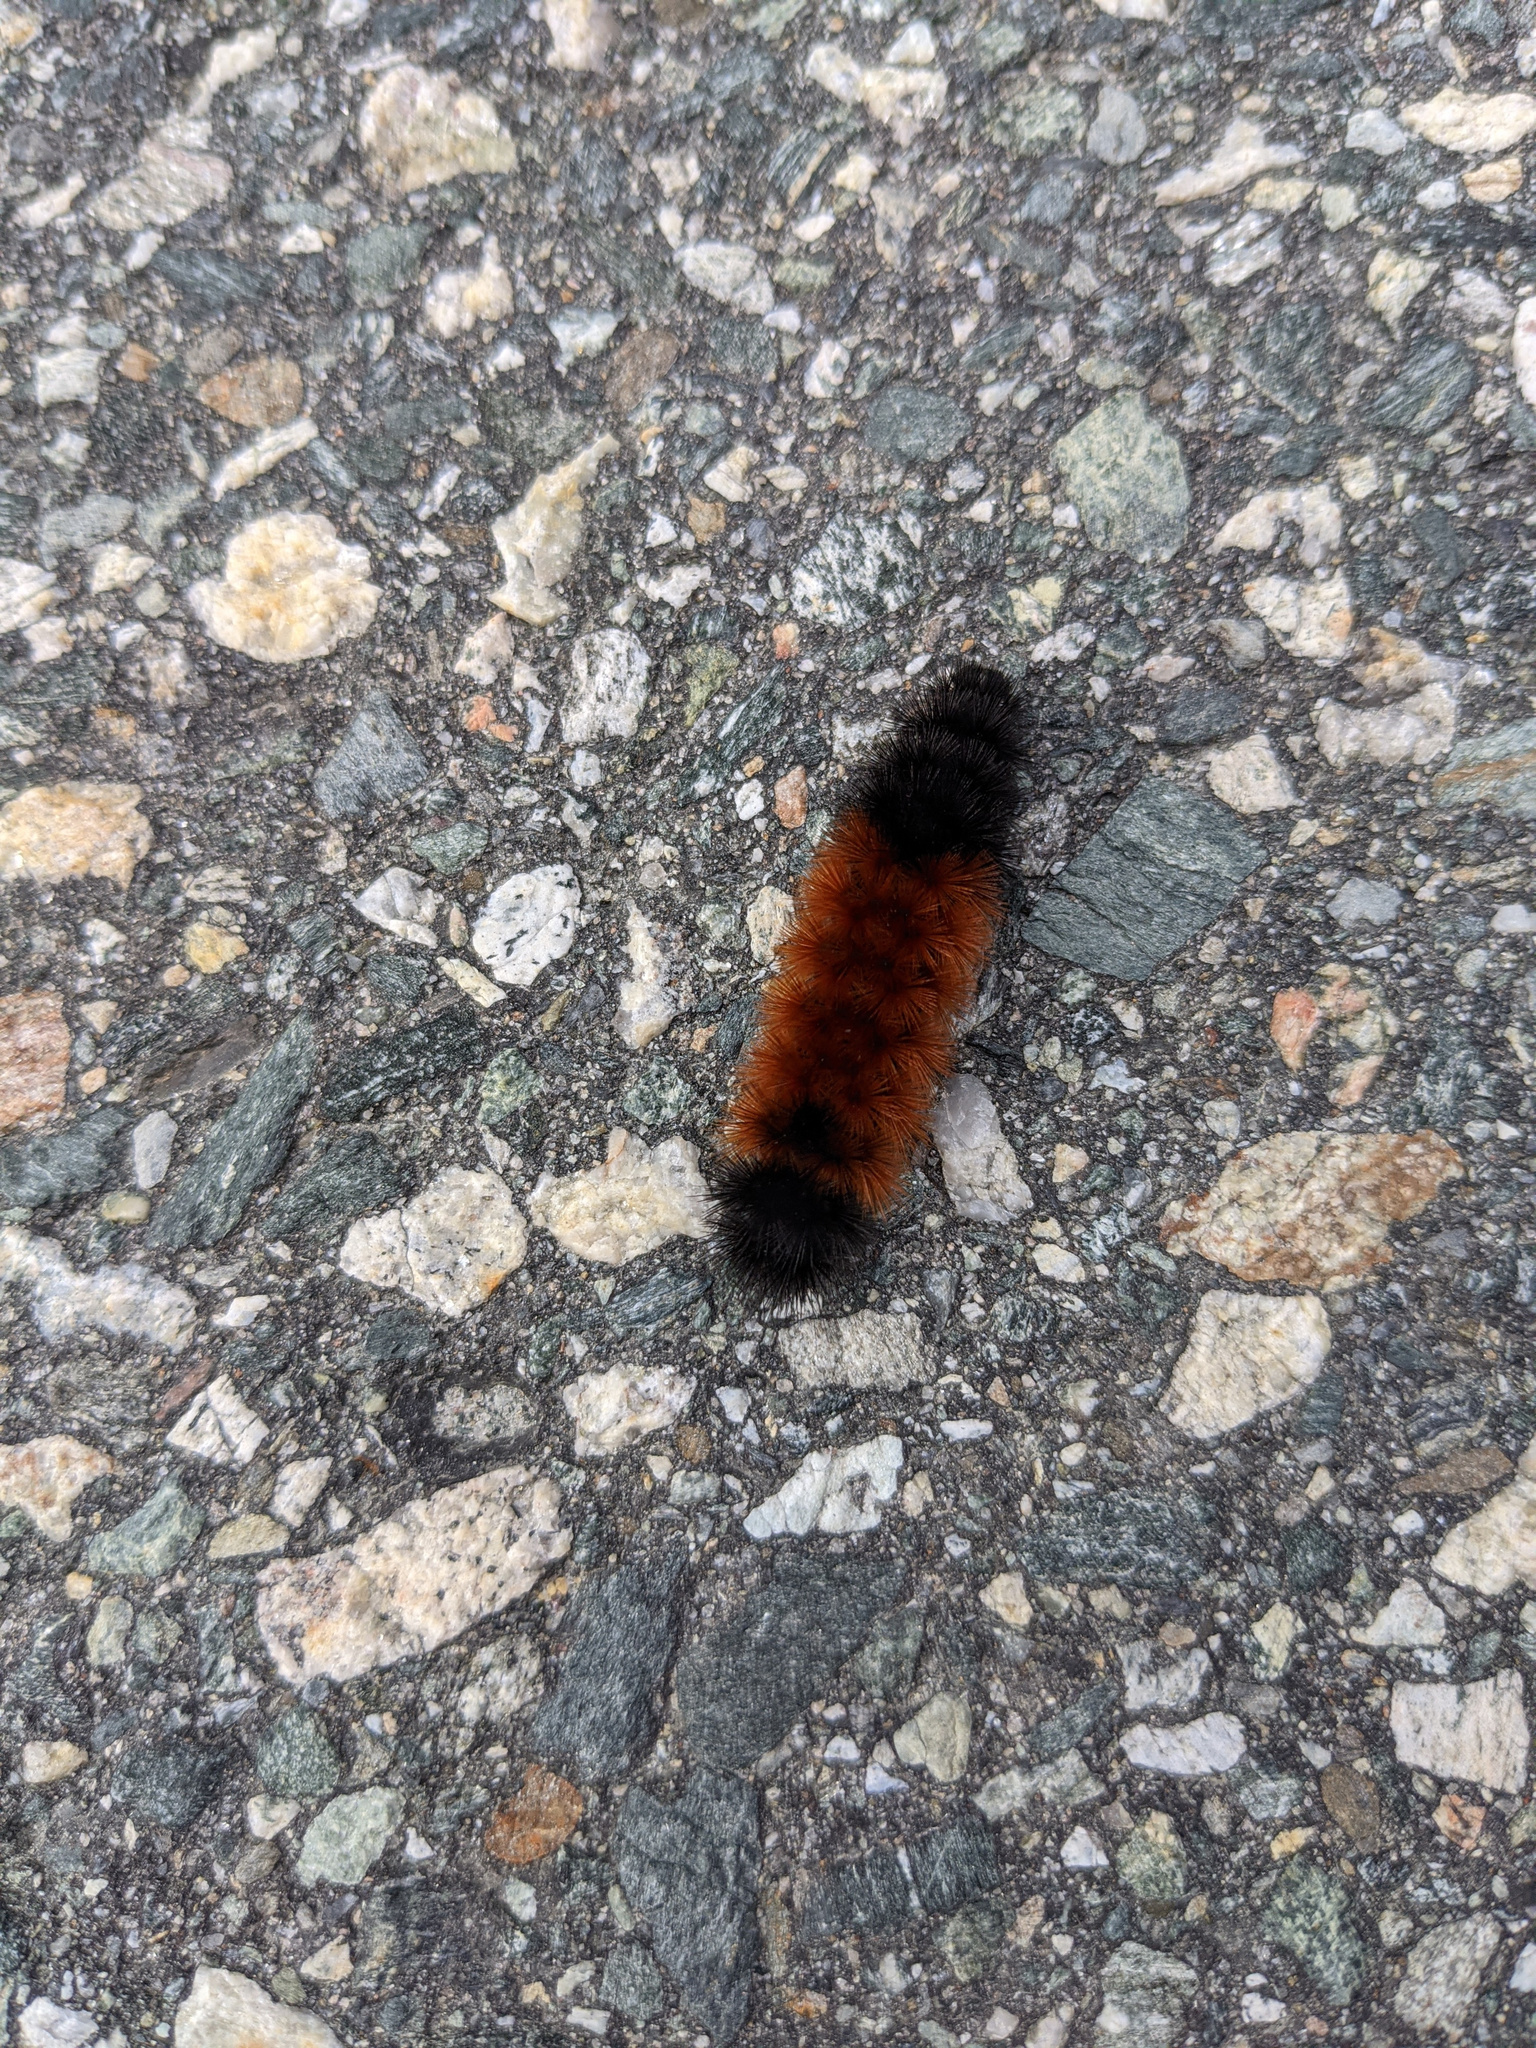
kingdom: Animalia
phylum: Arthropoda
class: Insecta
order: Lepidoptera
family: Erebidae
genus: Pyrrharctia
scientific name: Pyrrharctia isabella
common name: Isabella tiger moth
